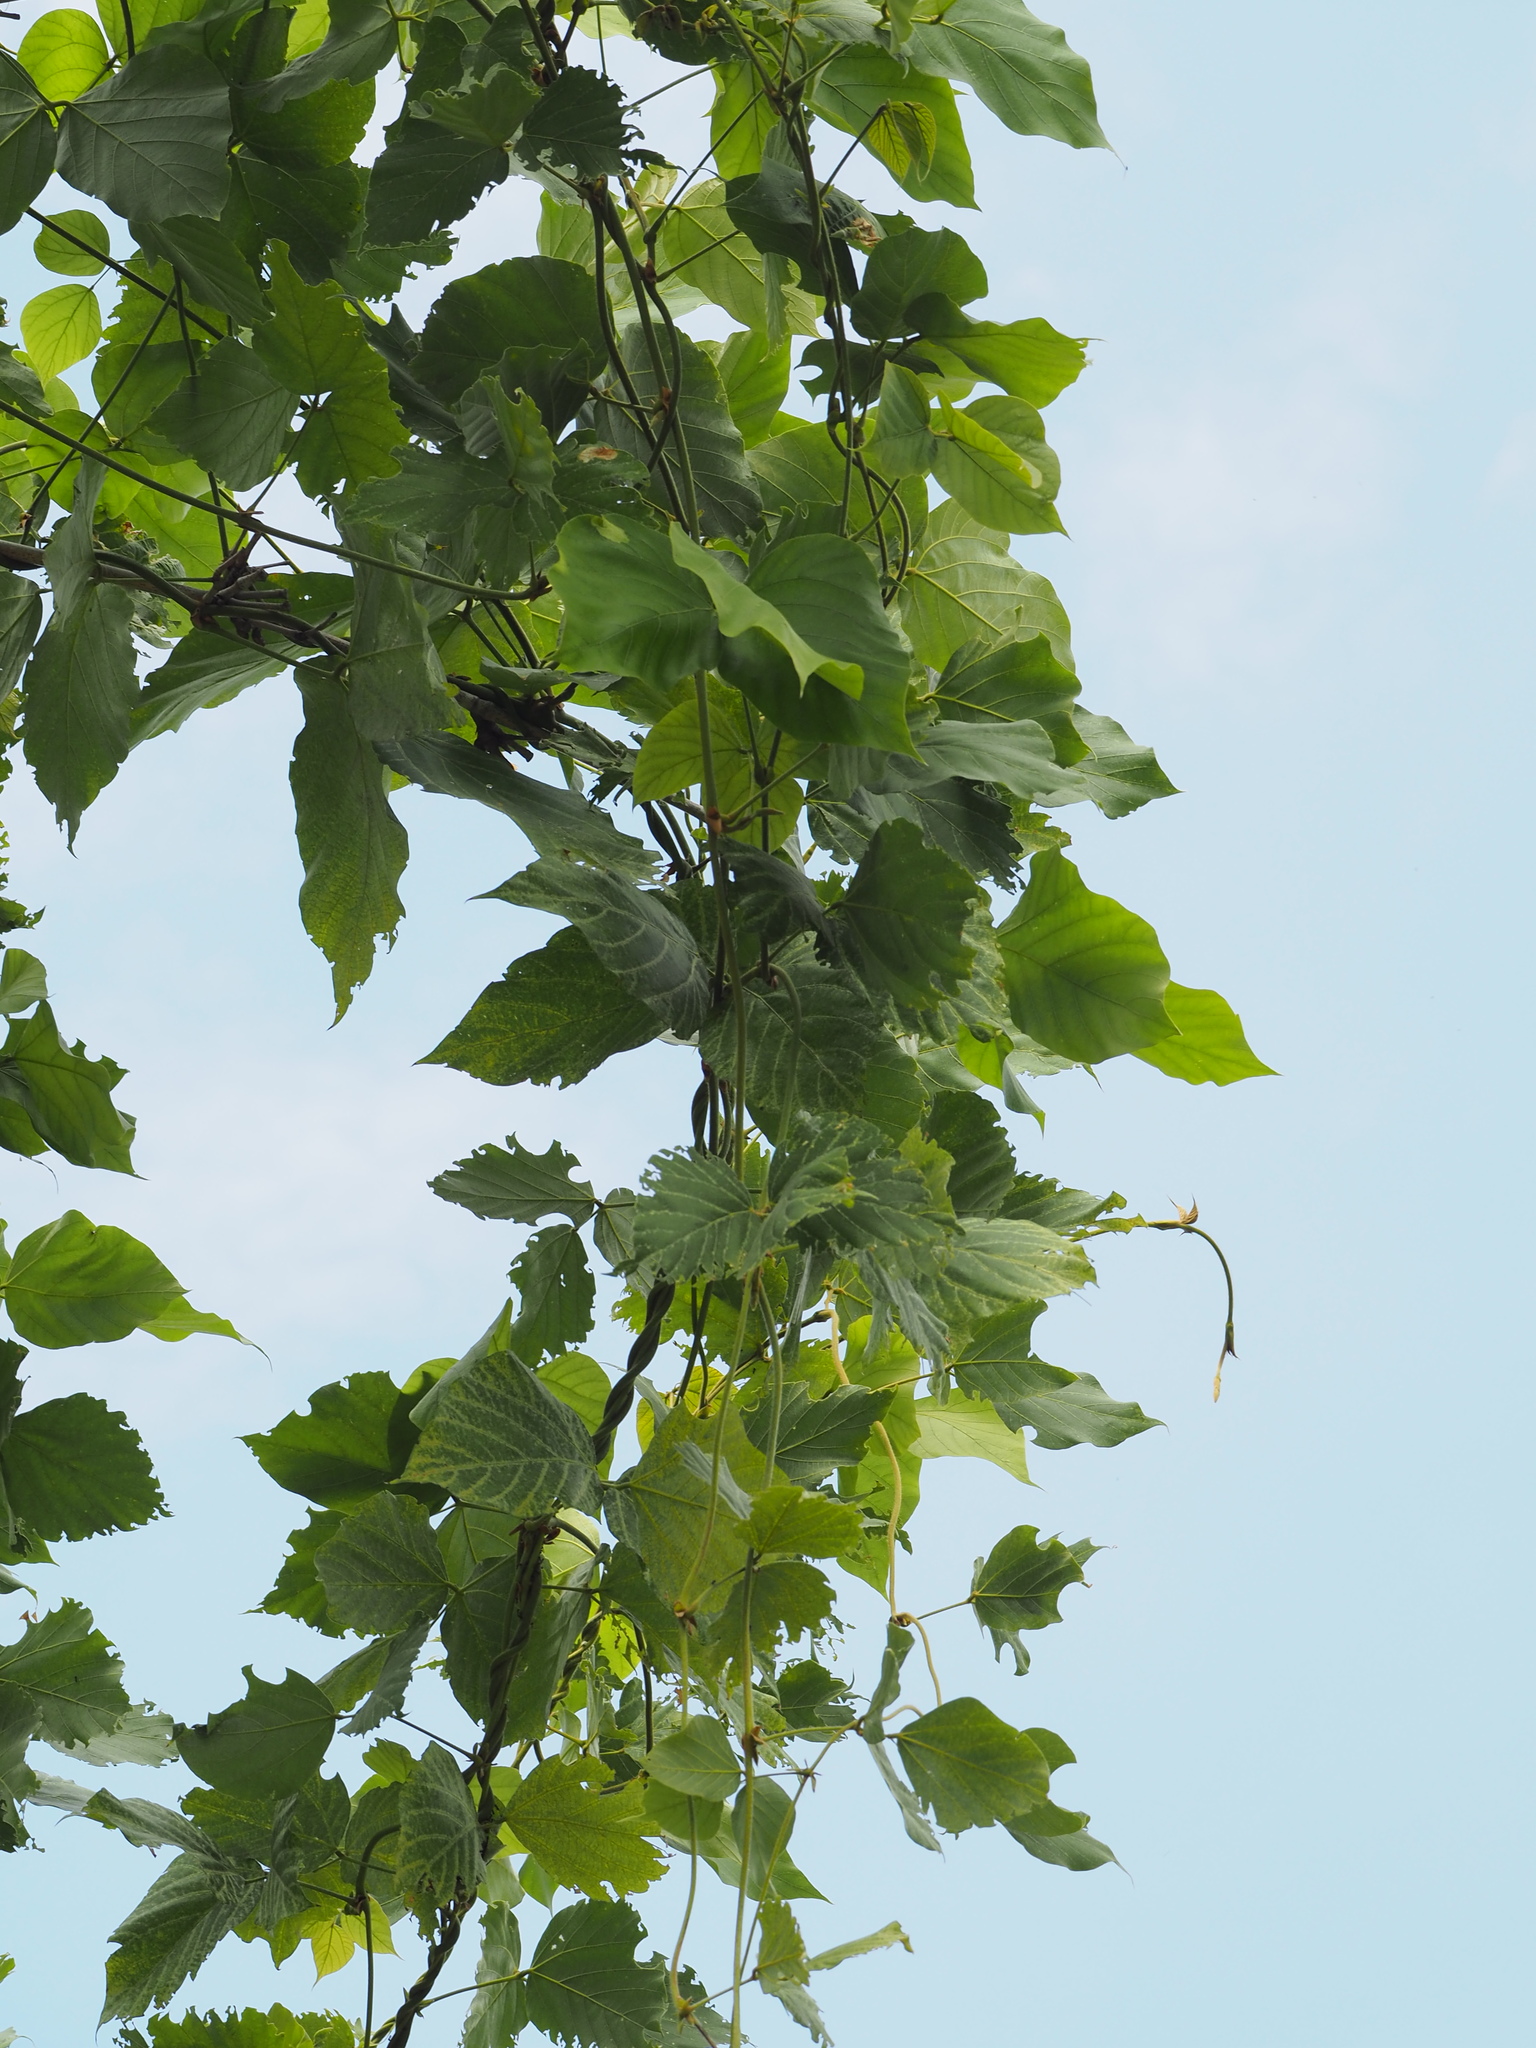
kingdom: Plantae
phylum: Tracheophyta
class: Magnoliopsida
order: Fabales
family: Fabaceae
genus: Pueraria
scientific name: Pueraria montana
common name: Kudzu
